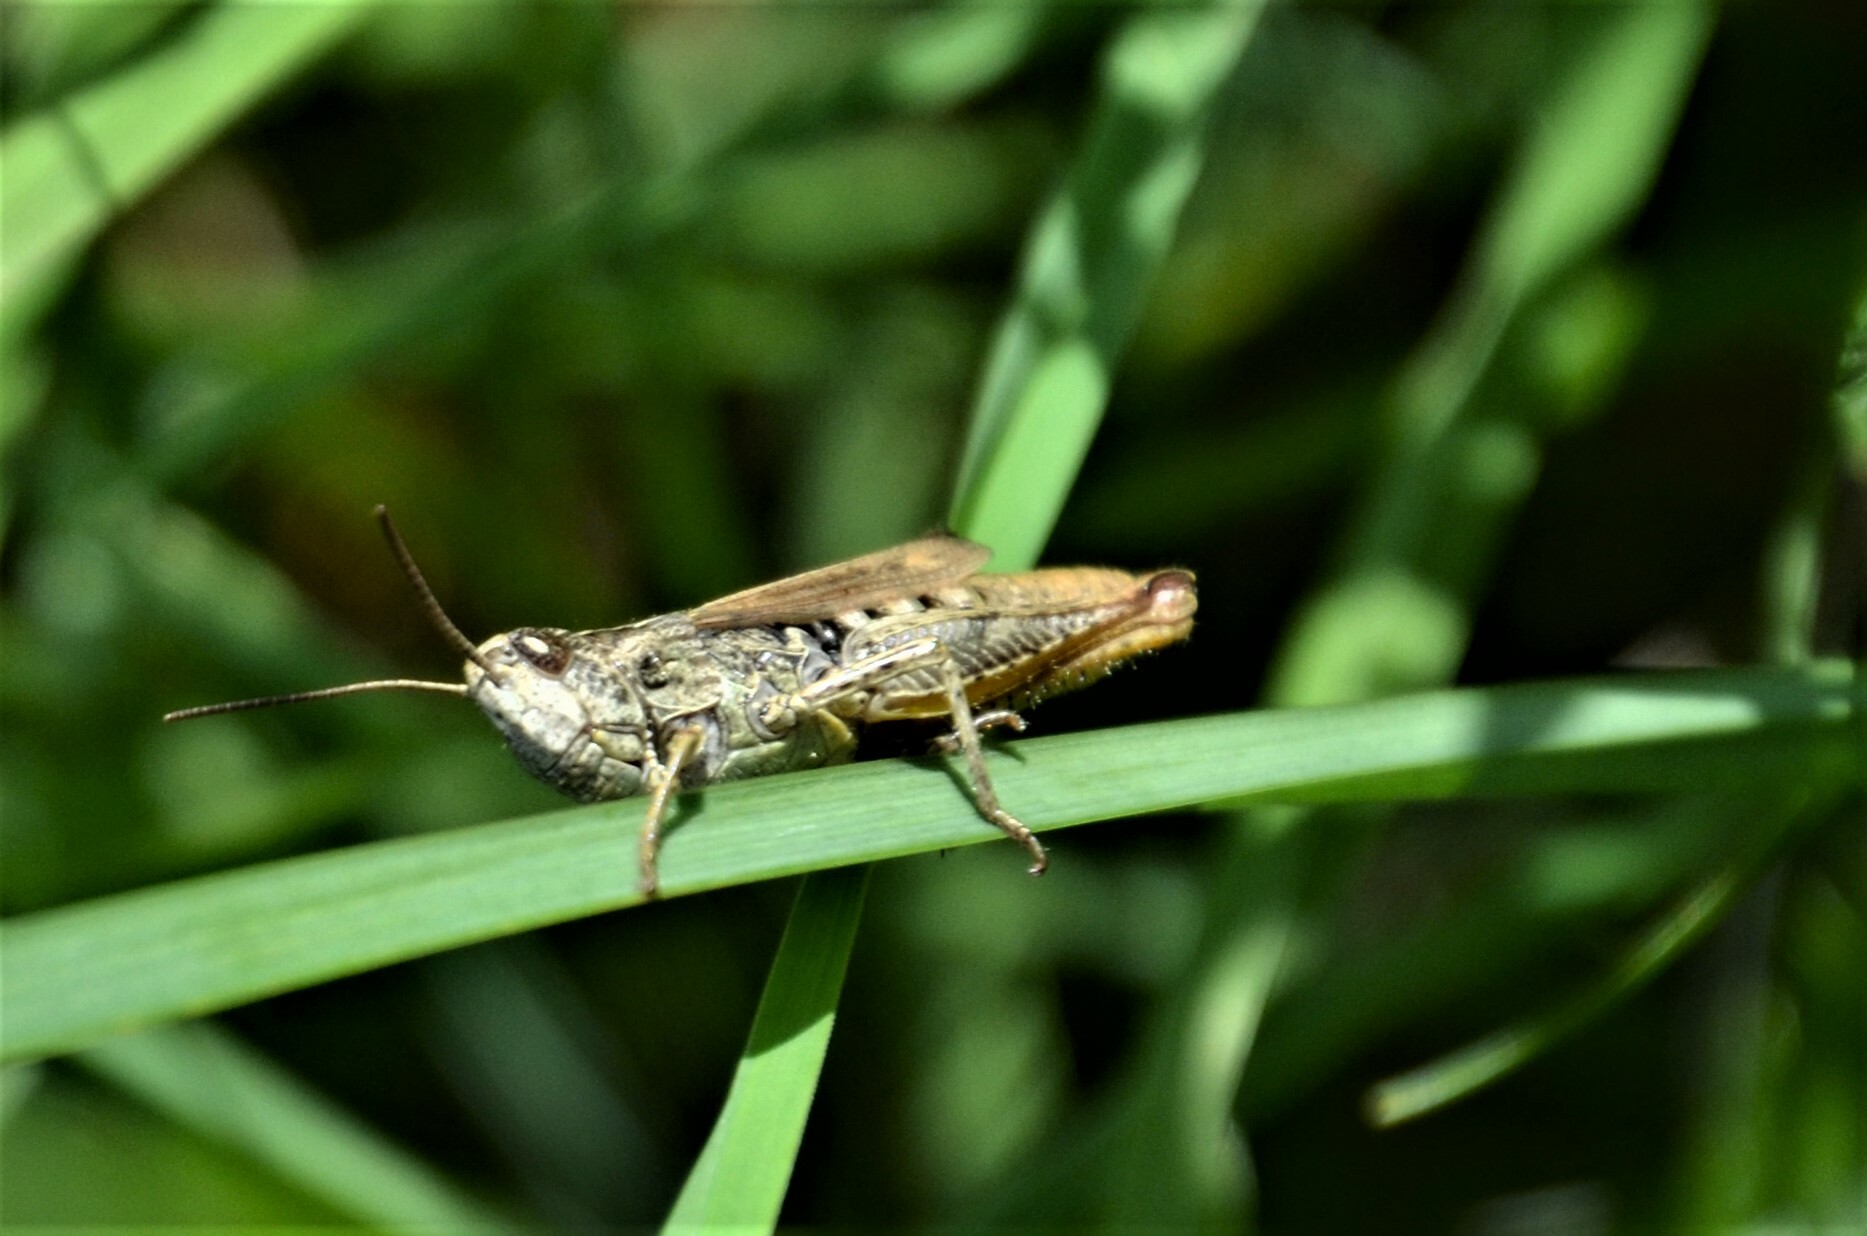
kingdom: Animalia
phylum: Arthropoda
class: Insecta
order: Orthoptera
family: Acrididae
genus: Chorthippus
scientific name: Chorthippus apricarius
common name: Upland field grasshopper
